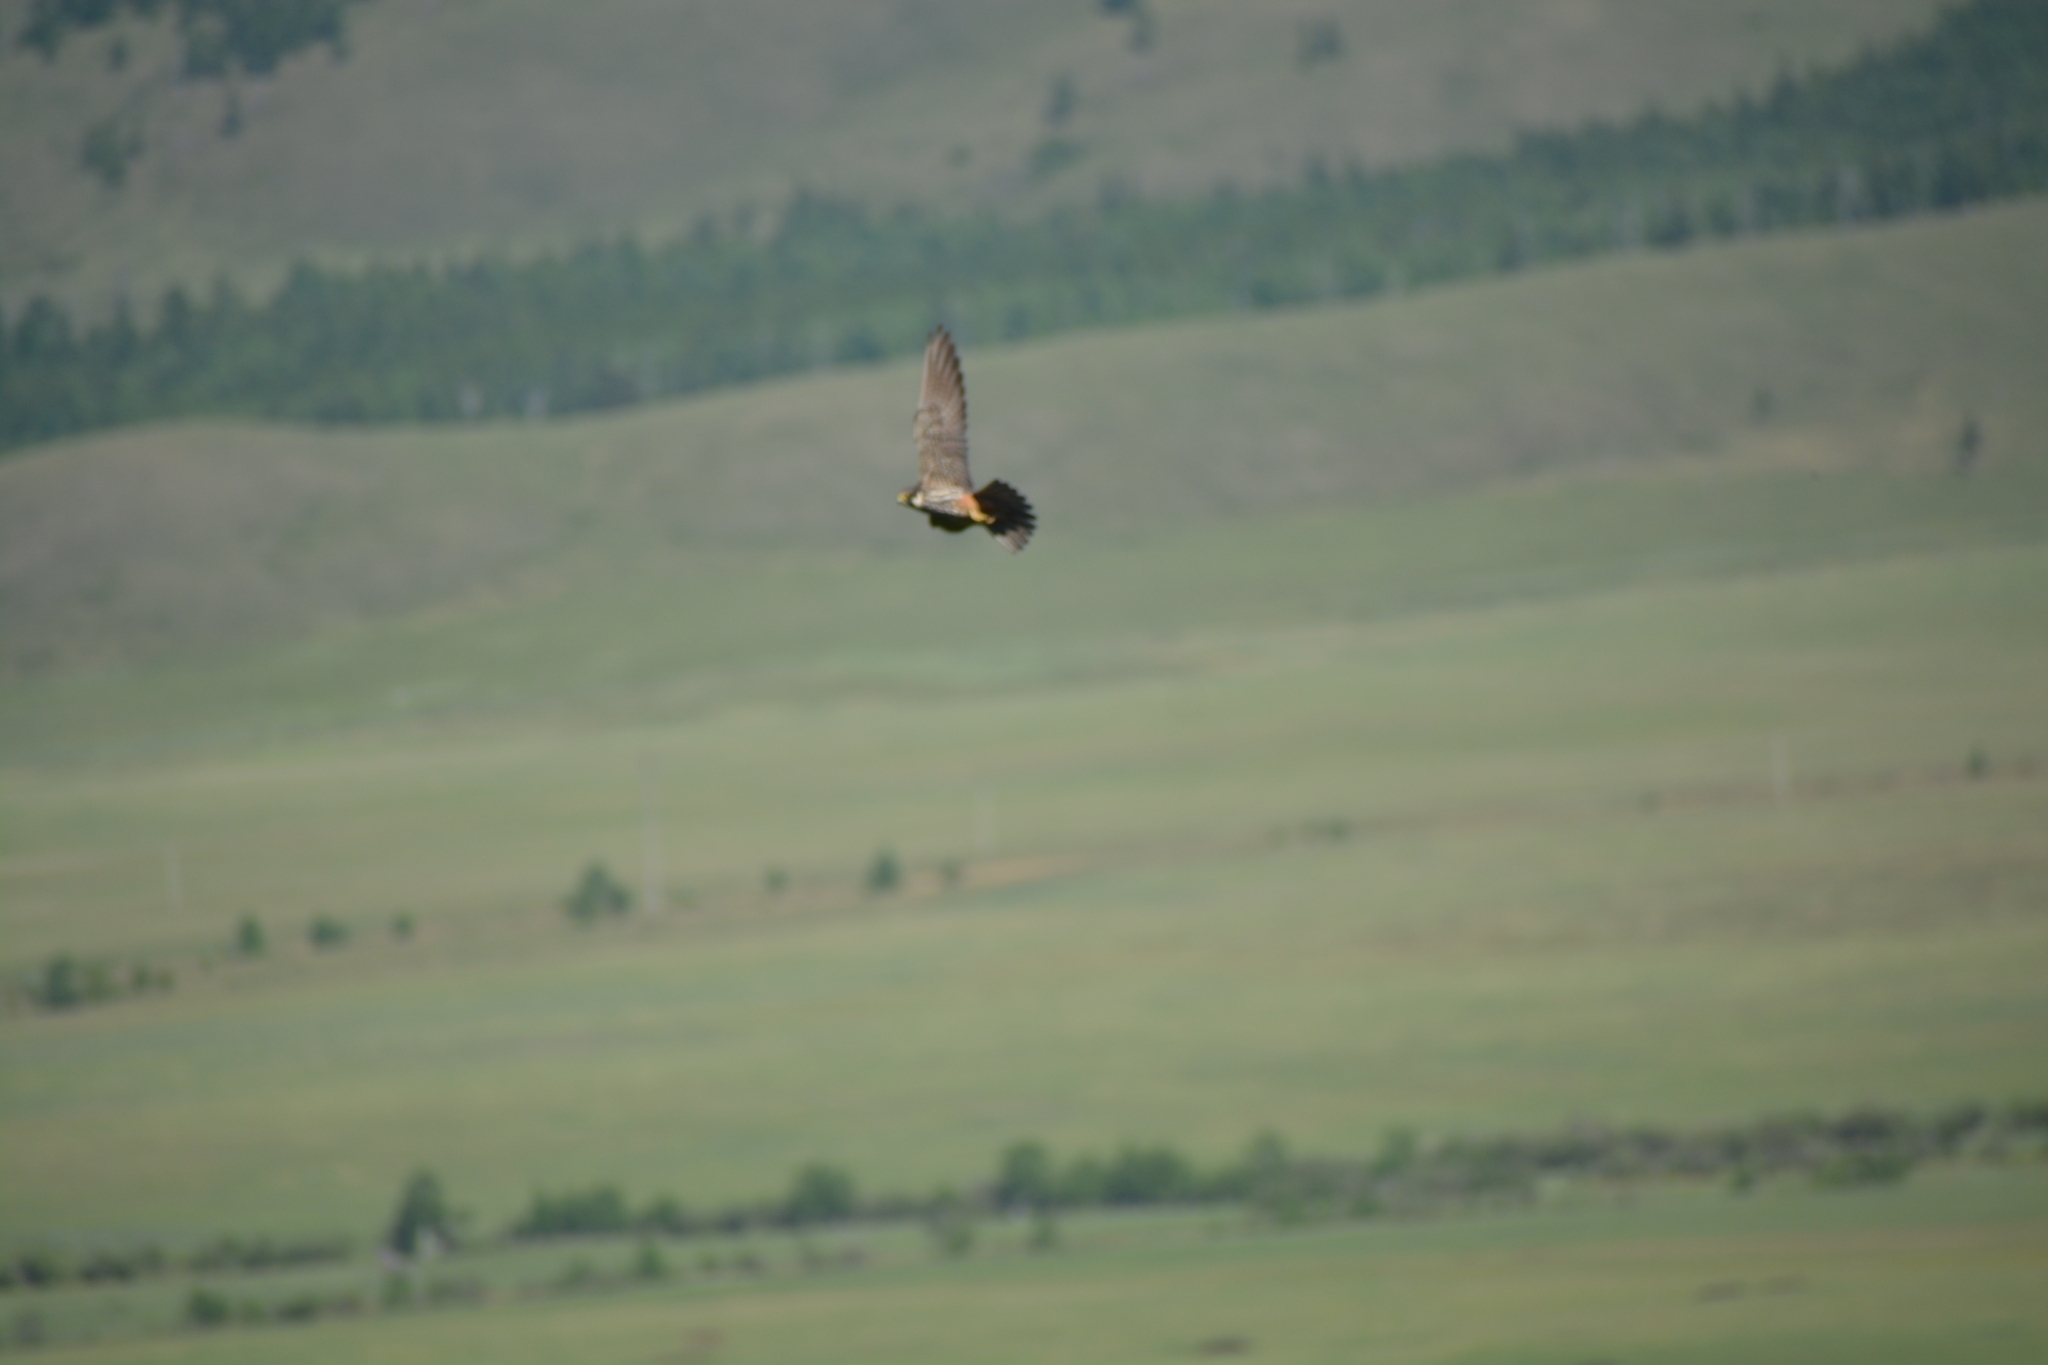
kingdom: Animalia
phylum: Chordata
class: Aves
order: Falconiformes
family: Falconidae
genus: Falco
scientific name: Falco subbuteo
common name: Eurasian hobby
